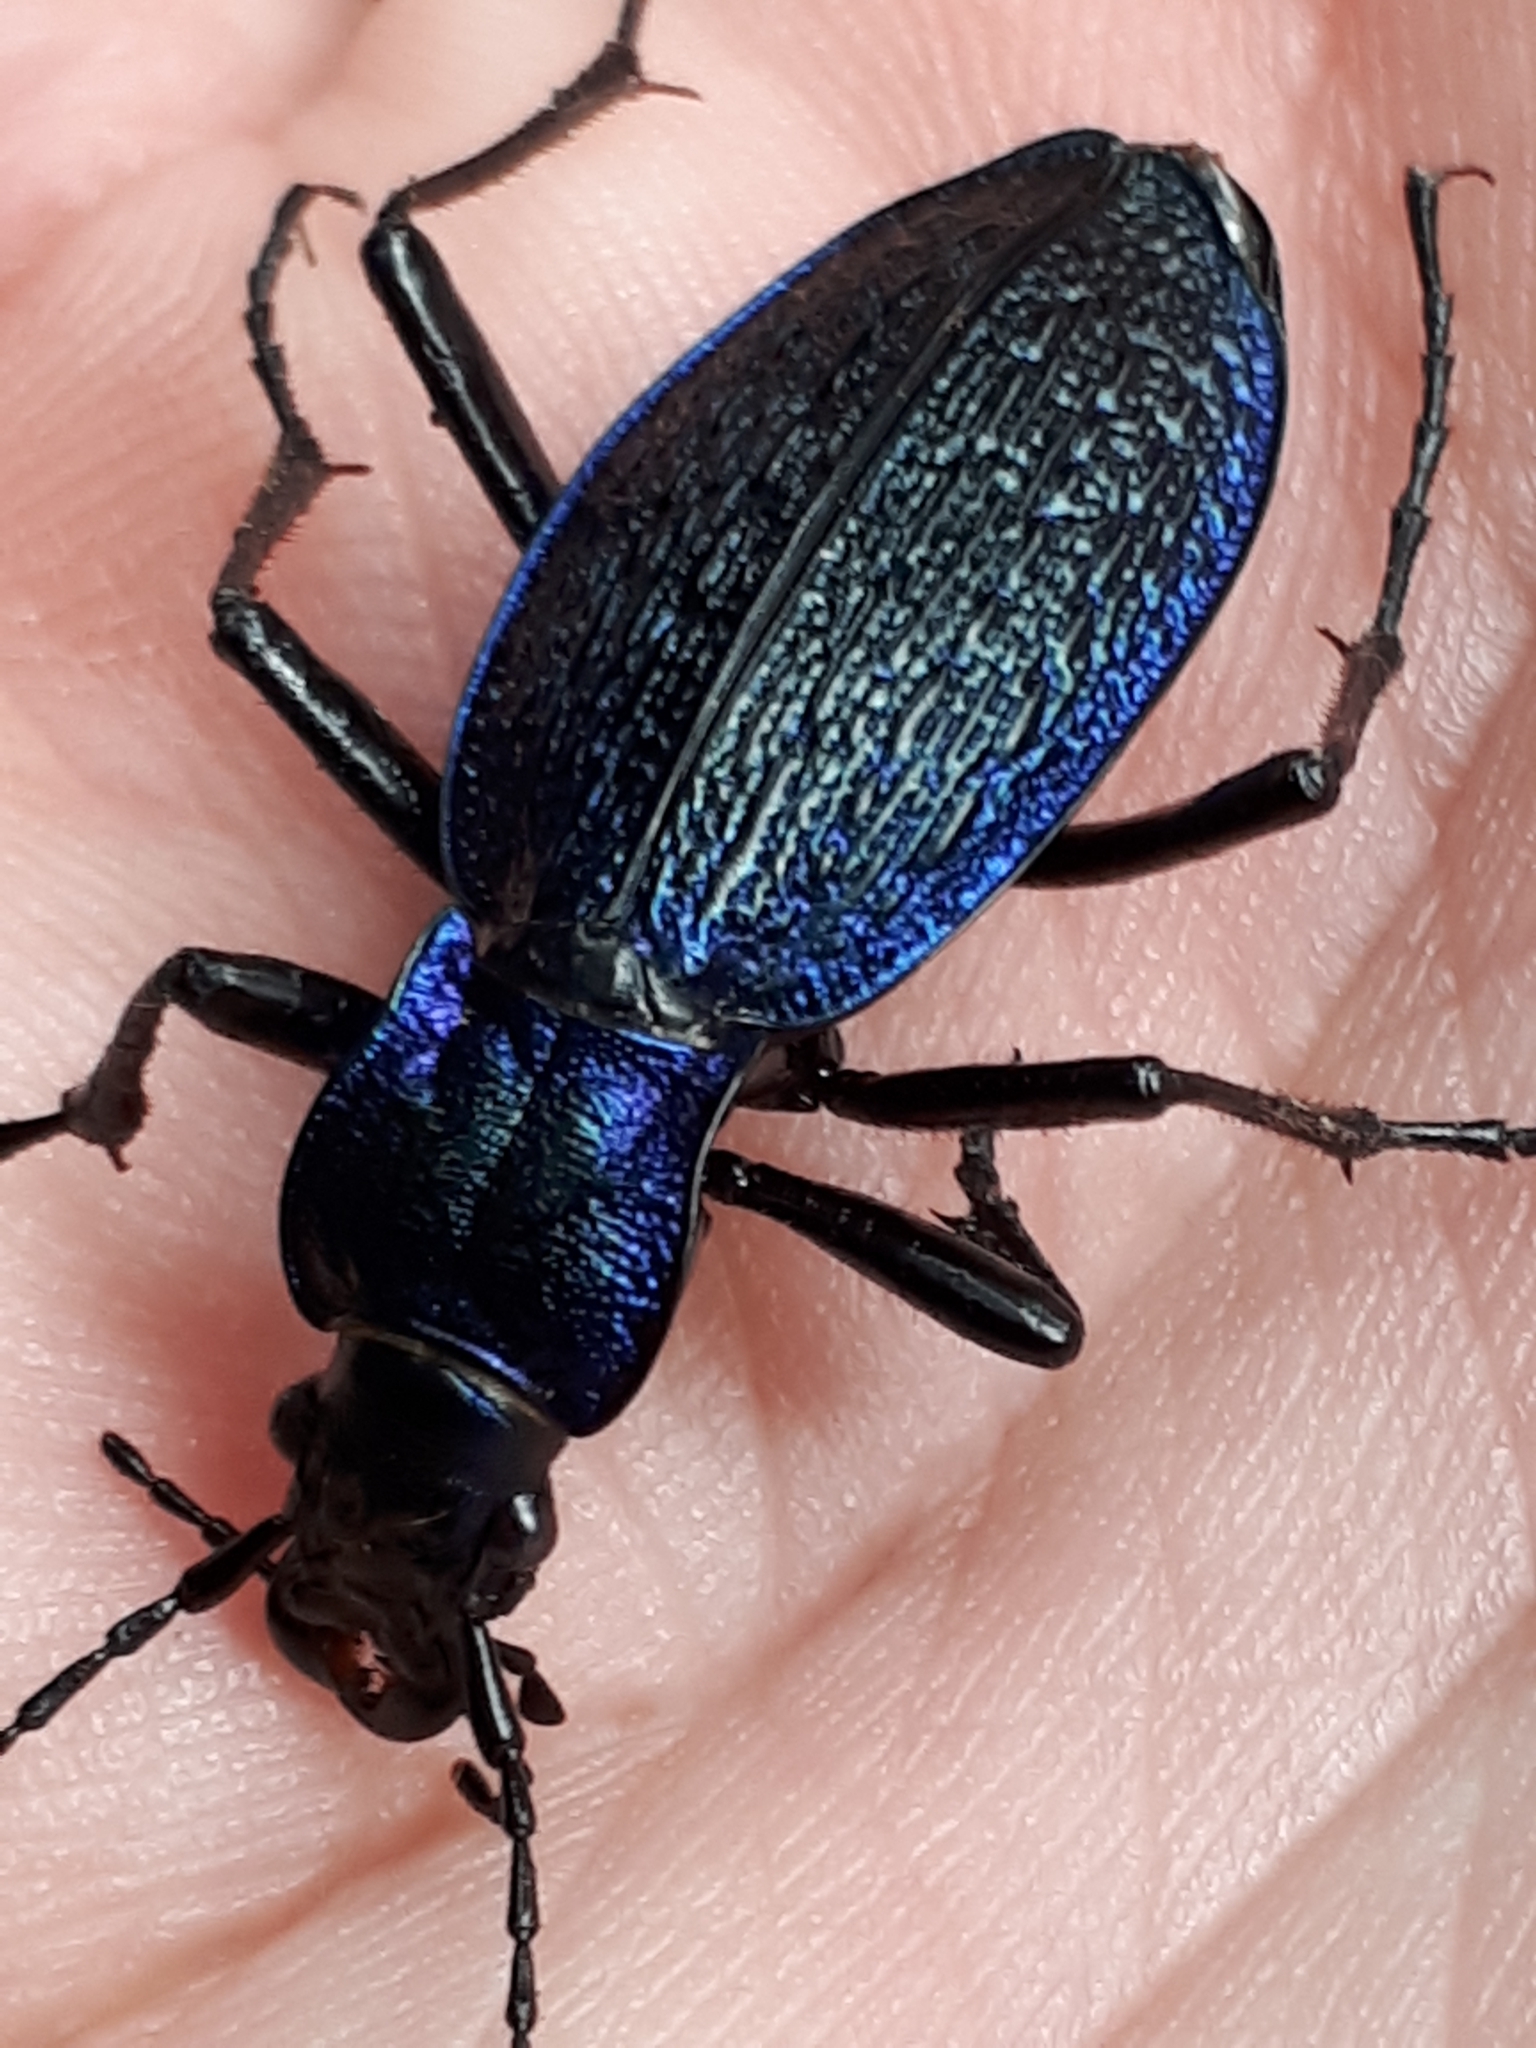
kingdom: Animalia
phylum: Arthropoda
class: Insecta
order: Coleoptera
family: Carabidae
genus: Carabus
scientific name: Carabus intricatus
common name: Blue ground beetle
